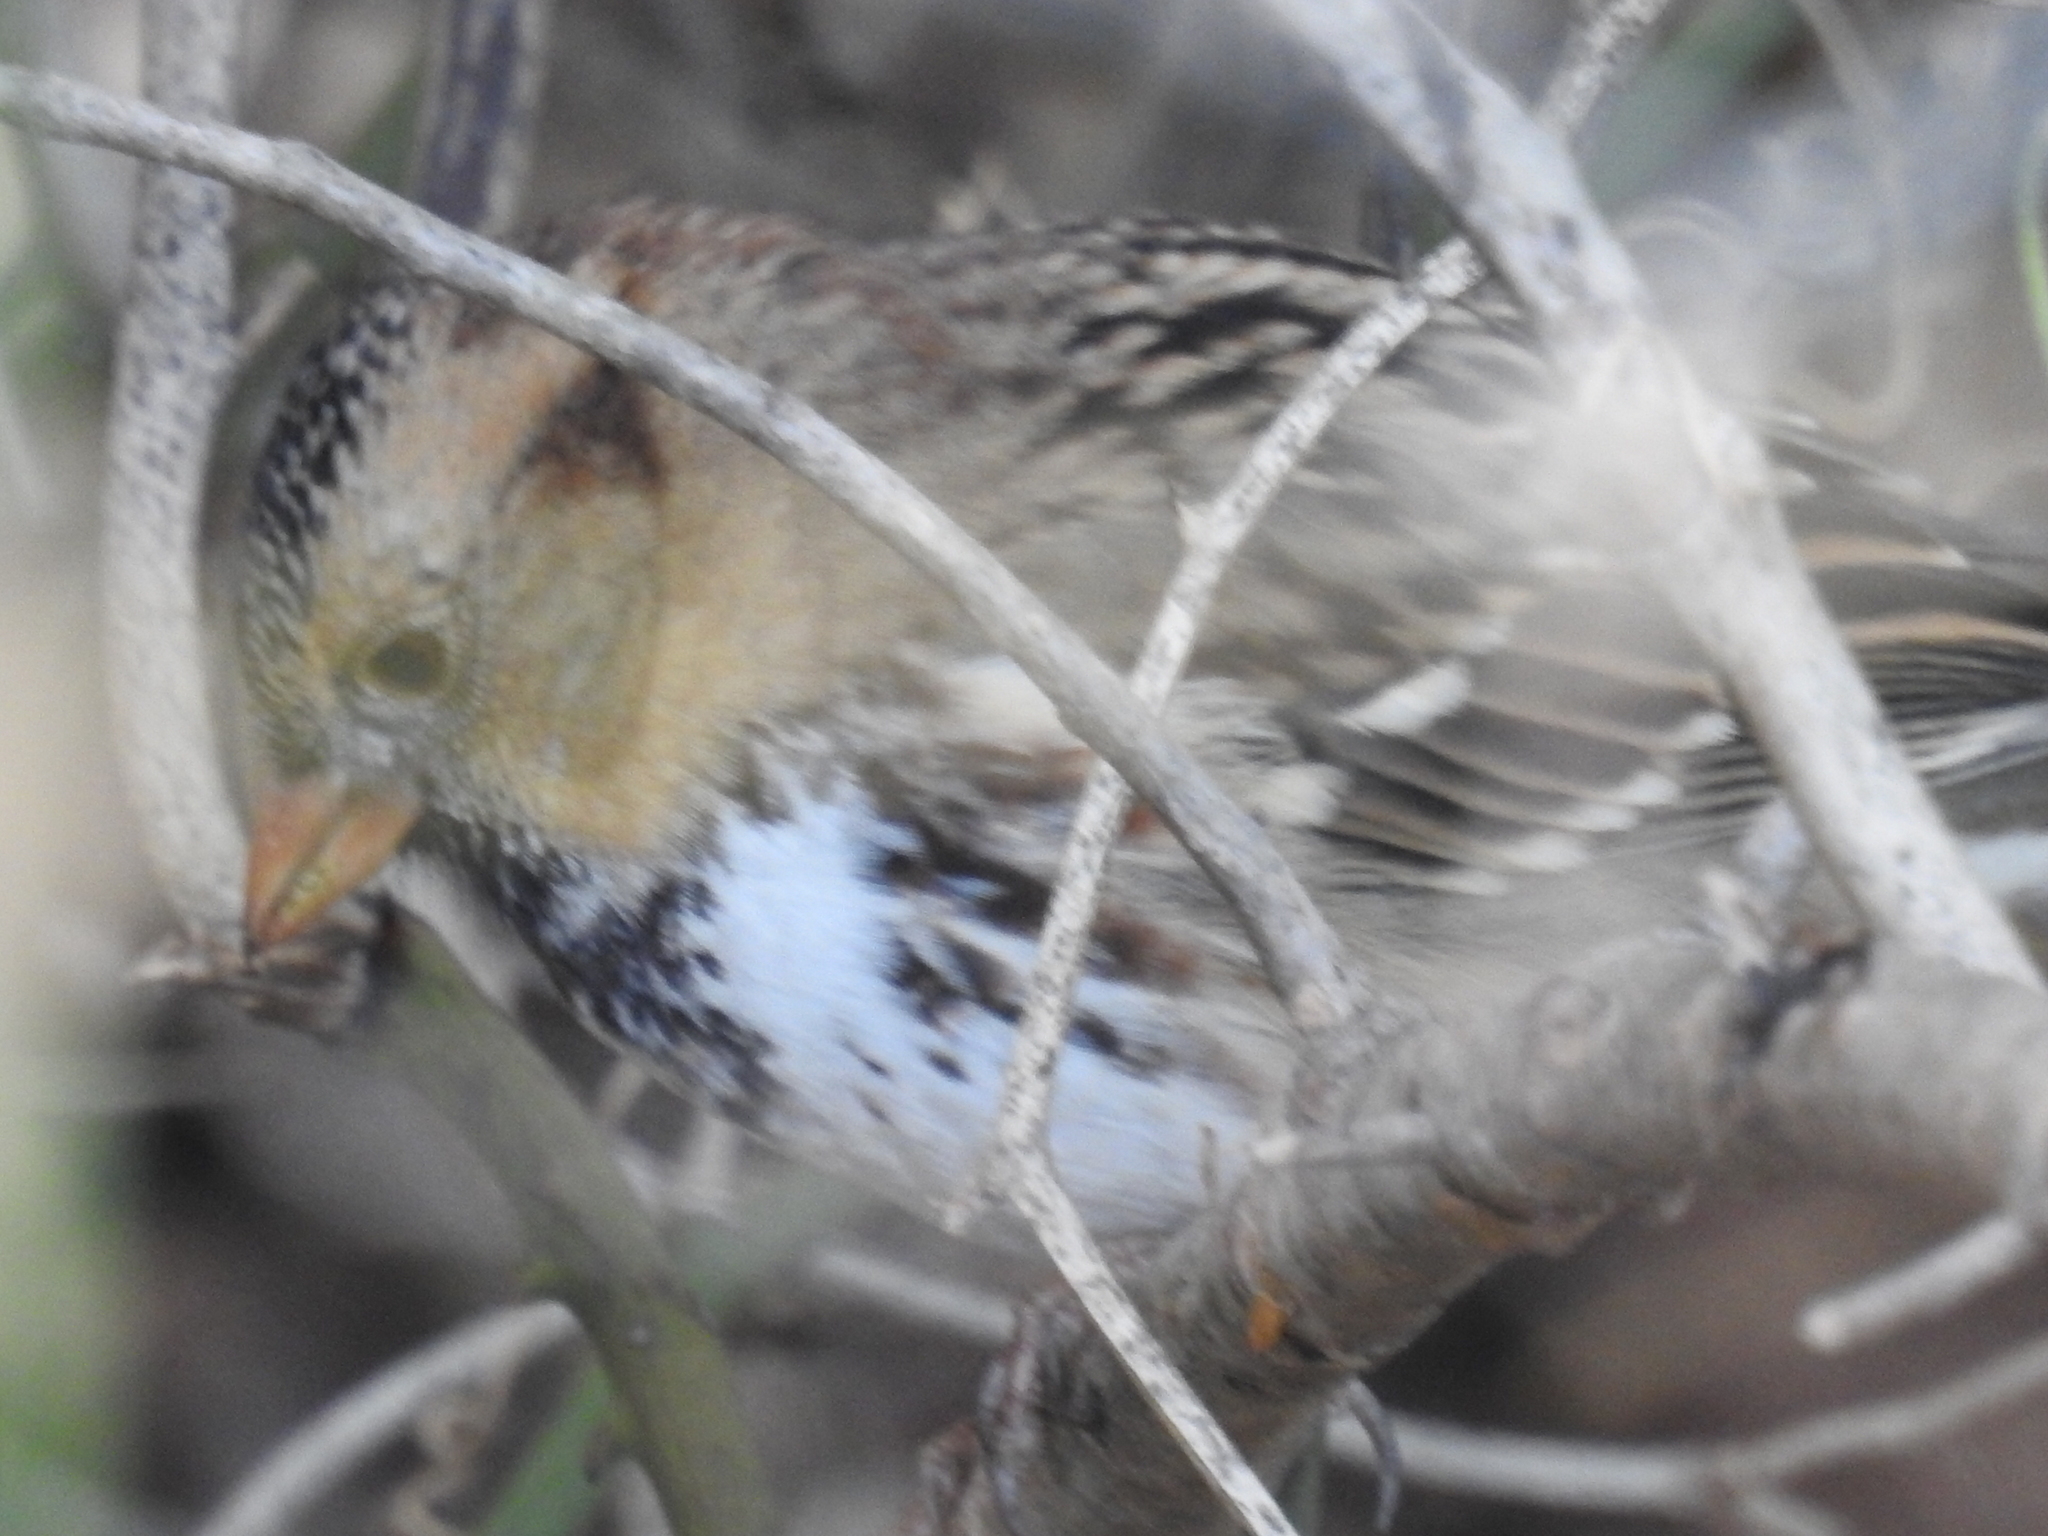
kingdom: Animalia
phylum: Chordata
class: Aves
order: Passeriformes
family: Passerellidae
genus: Zonotrichia
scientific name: Zonotrichia querula
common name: Harris's sparrow
